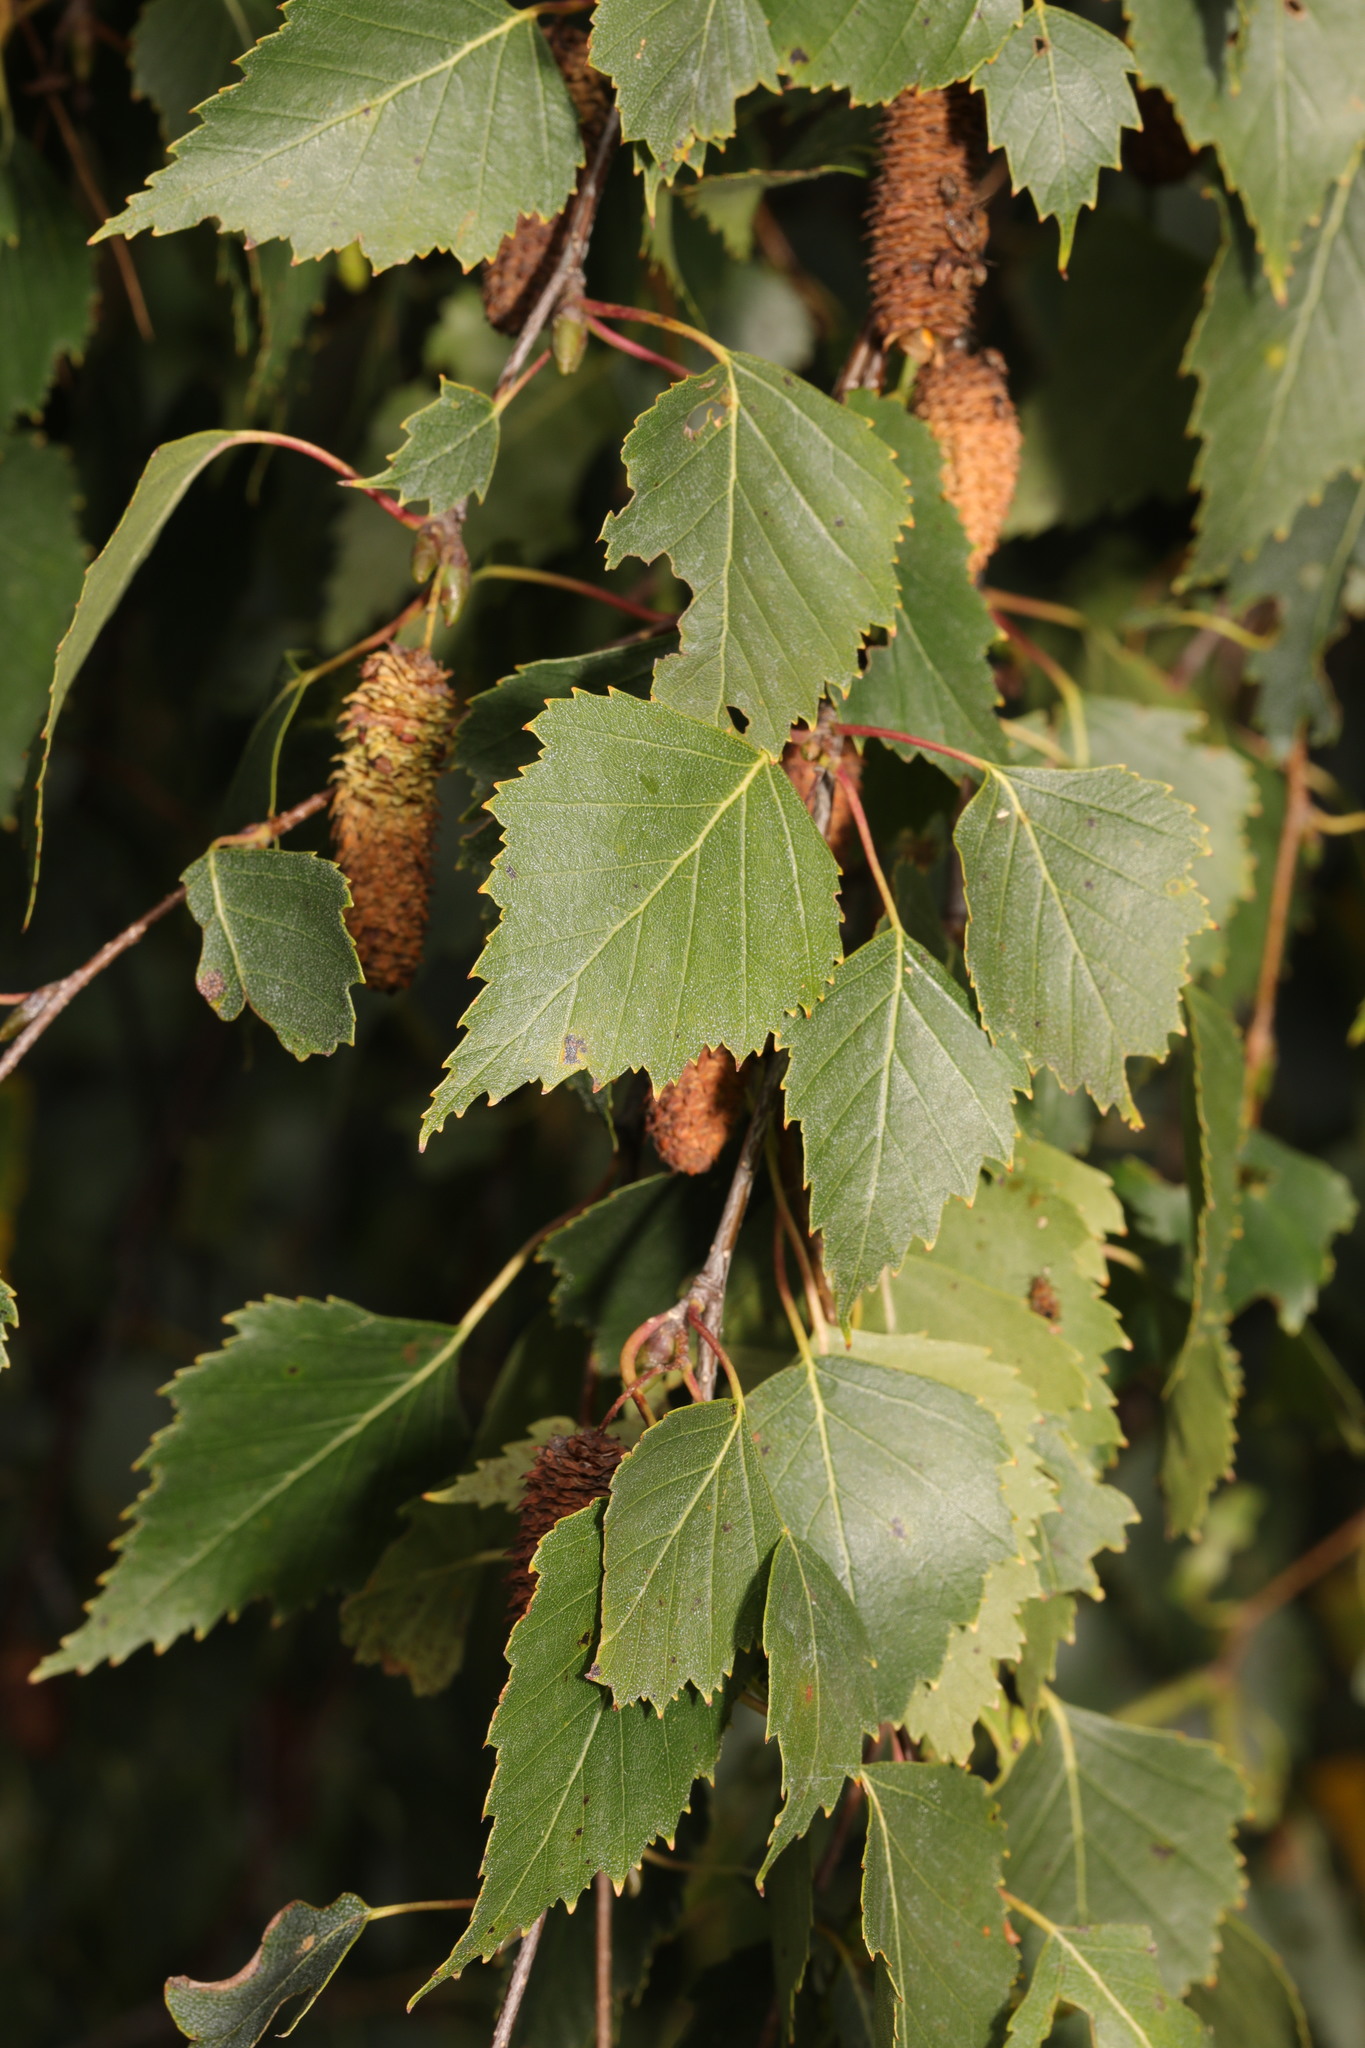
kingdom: Plantae
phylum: Tracheophyta
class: Magnoliopsida
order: Fagales
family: Betulaceae
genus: Betula
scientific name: Betula pendula
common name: Silver birch
